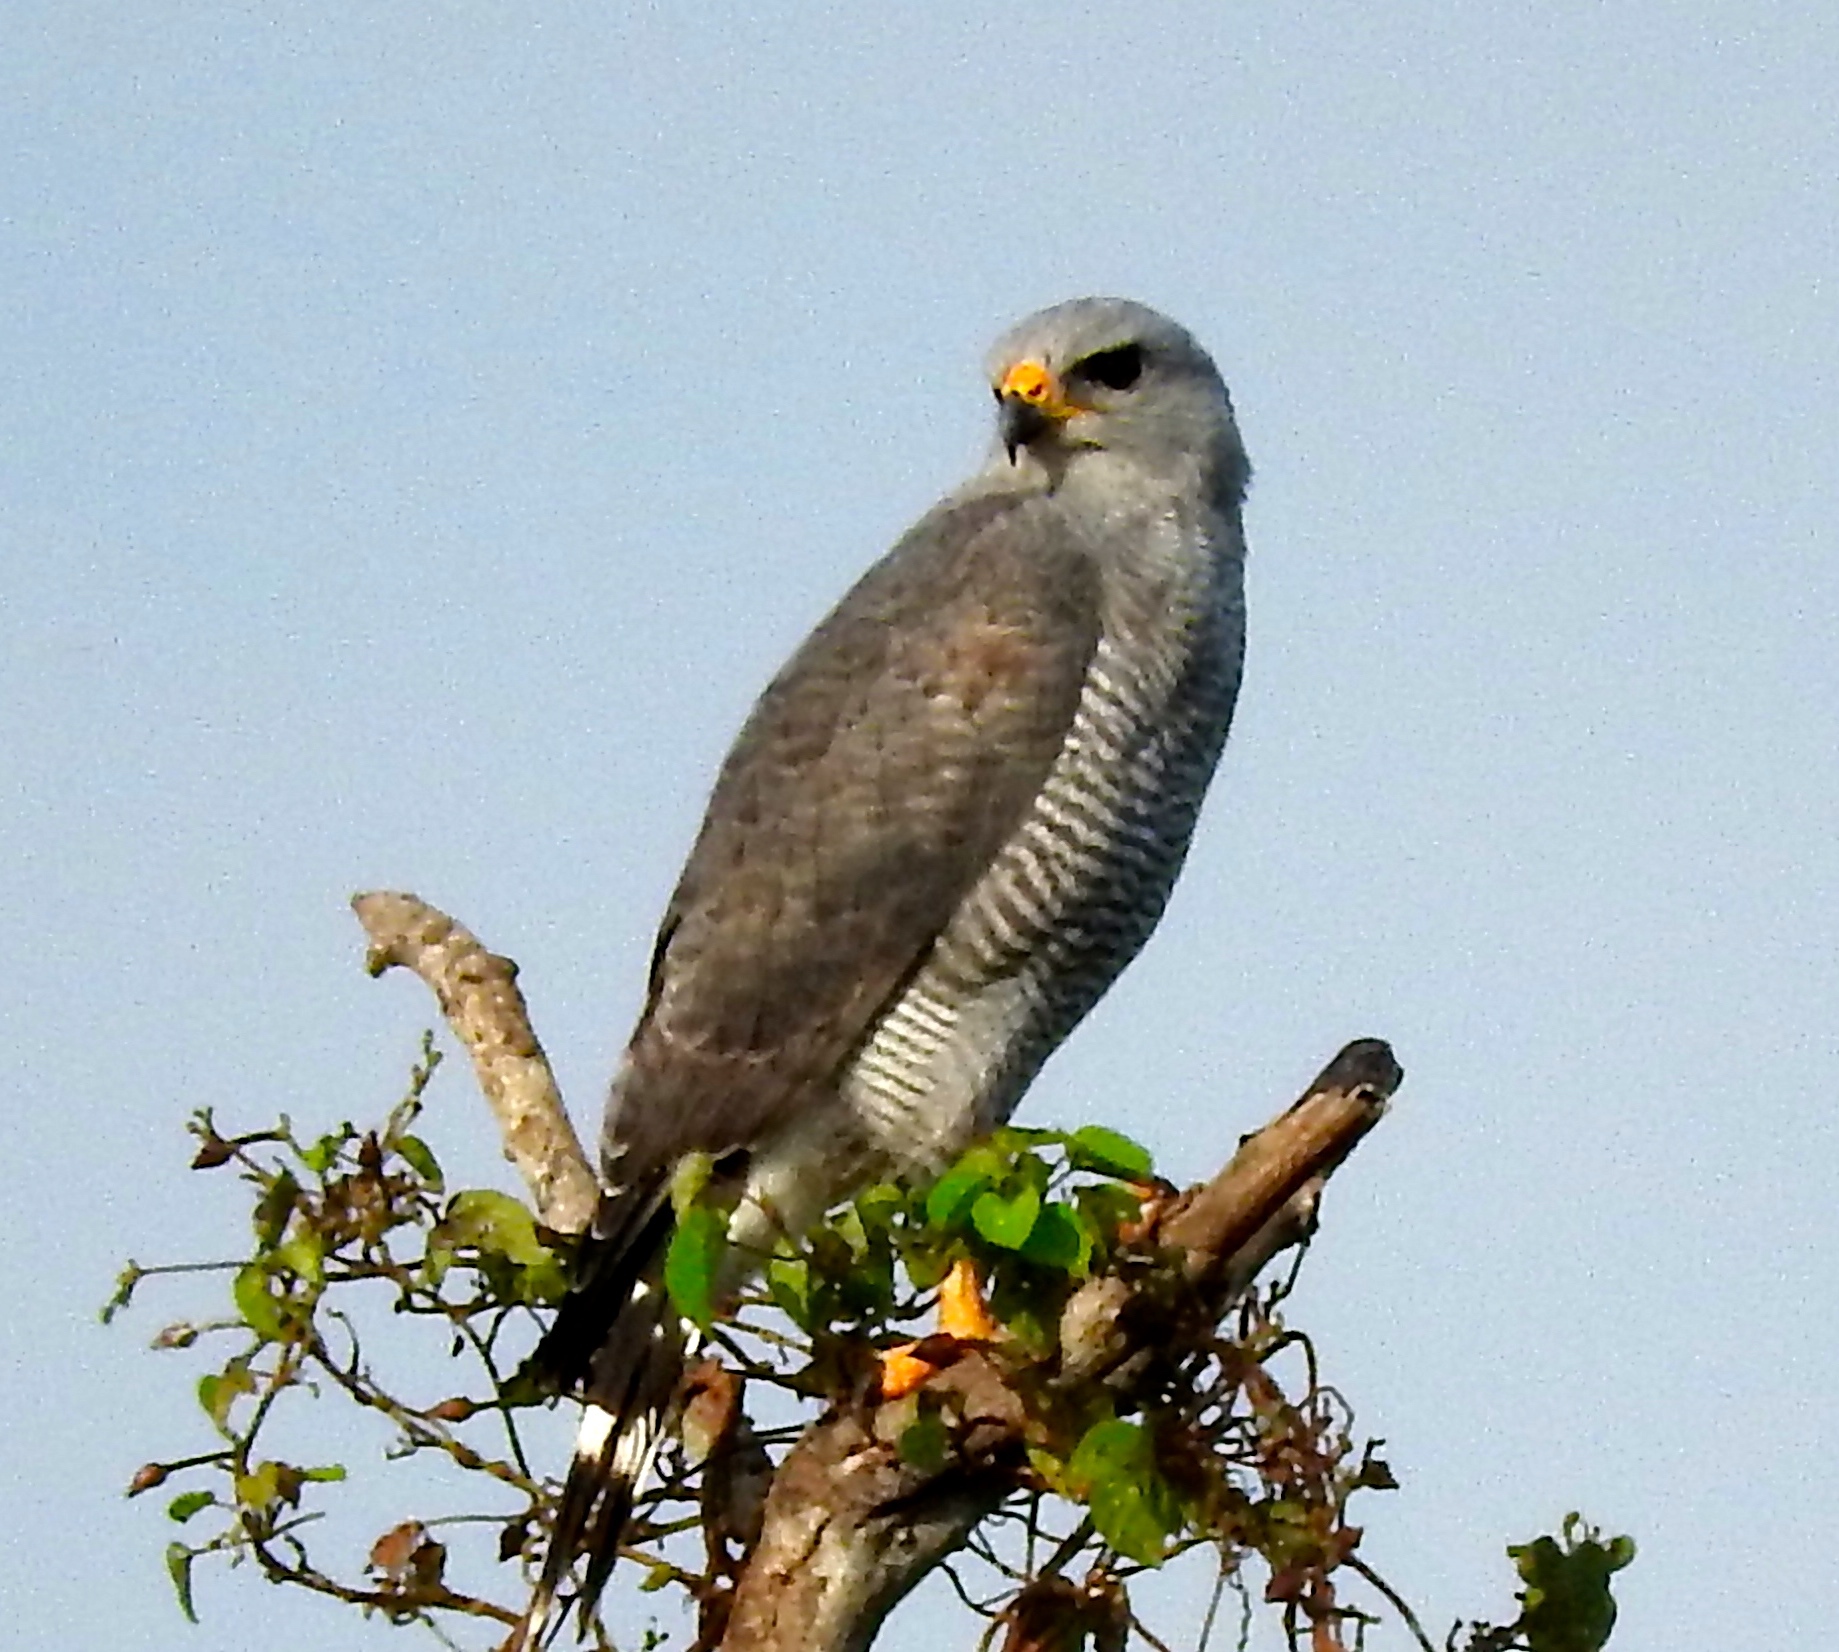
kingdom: Animalia
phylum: Chordata
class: Aves
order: Accipitriformes
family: Accipitridae
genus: Buteo
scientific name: Buteo nitidus
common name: Grey-lined hawk
